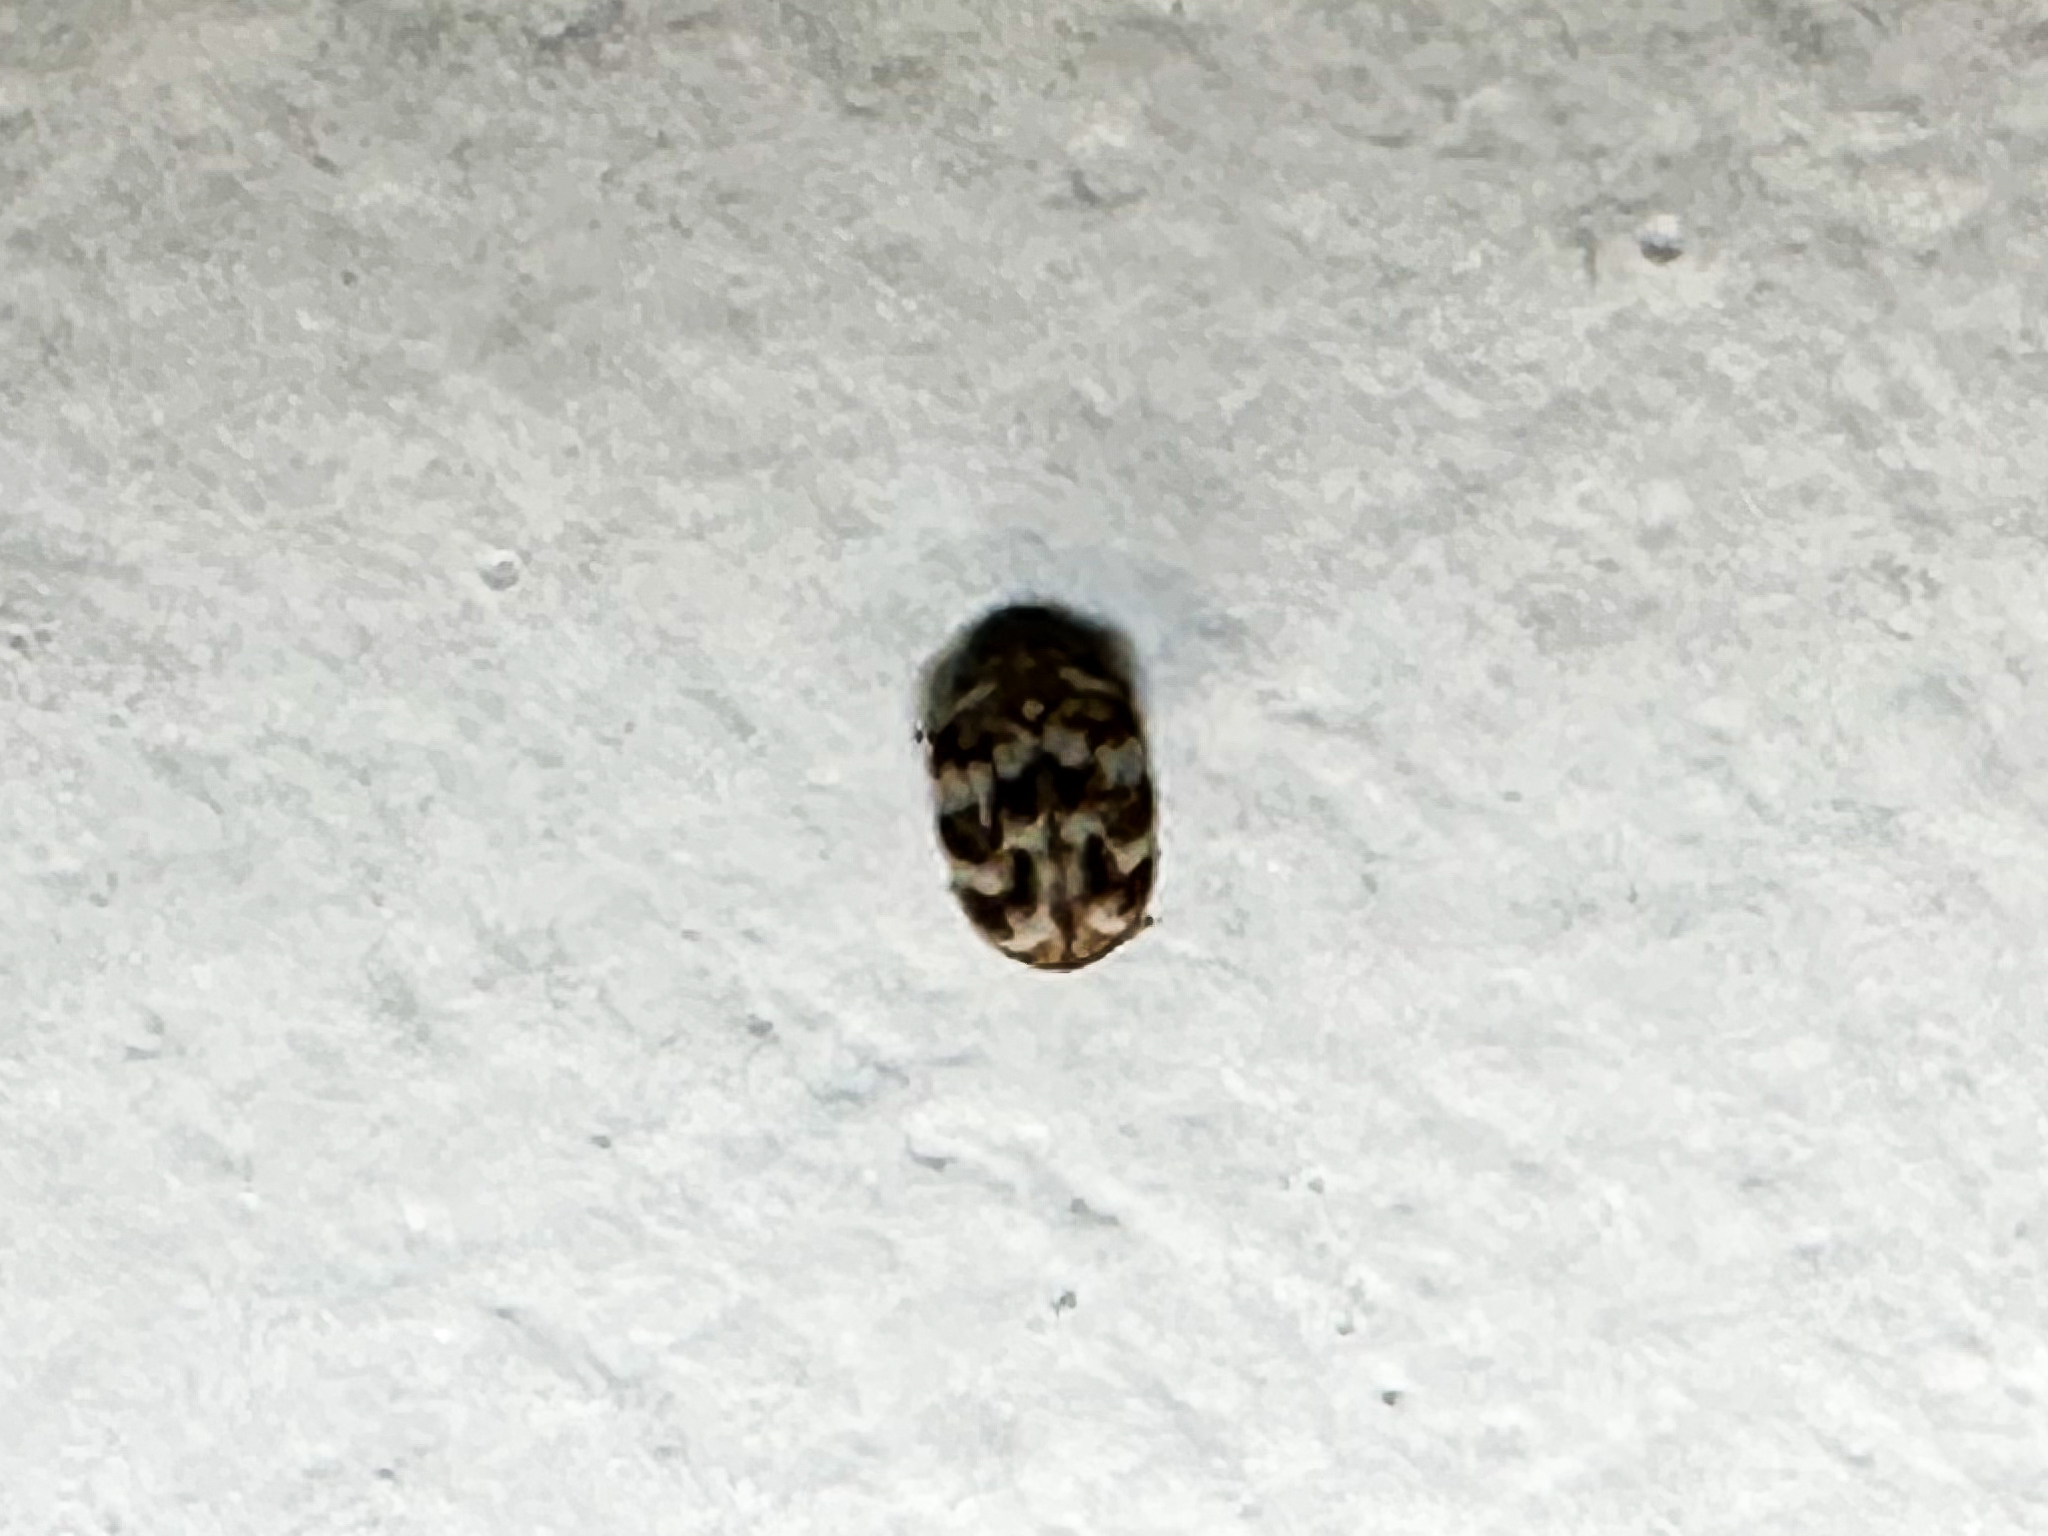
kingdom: Animalia
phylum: Arthropoda
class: Insecta
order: Coleoptera
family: Dermestidae
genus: Anthrenus
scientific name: Anthrenus verbasci
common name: Varied carpet beetle
